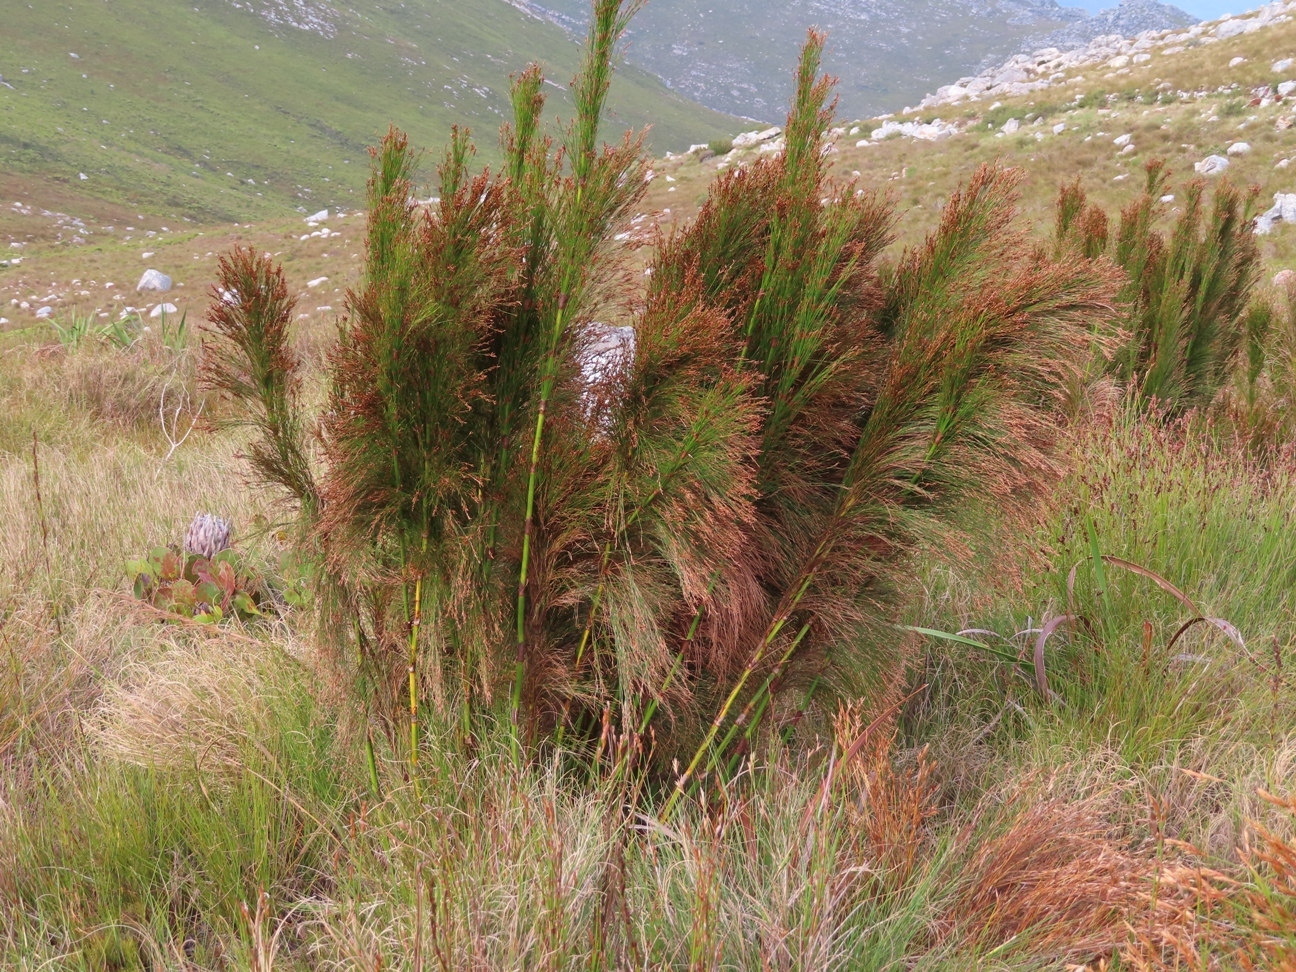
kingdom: Plantae
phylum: Tracheophyta
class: Liliopsida
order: Poales
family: Restionaceae
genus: Restio
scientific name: Restio subverticillatus
